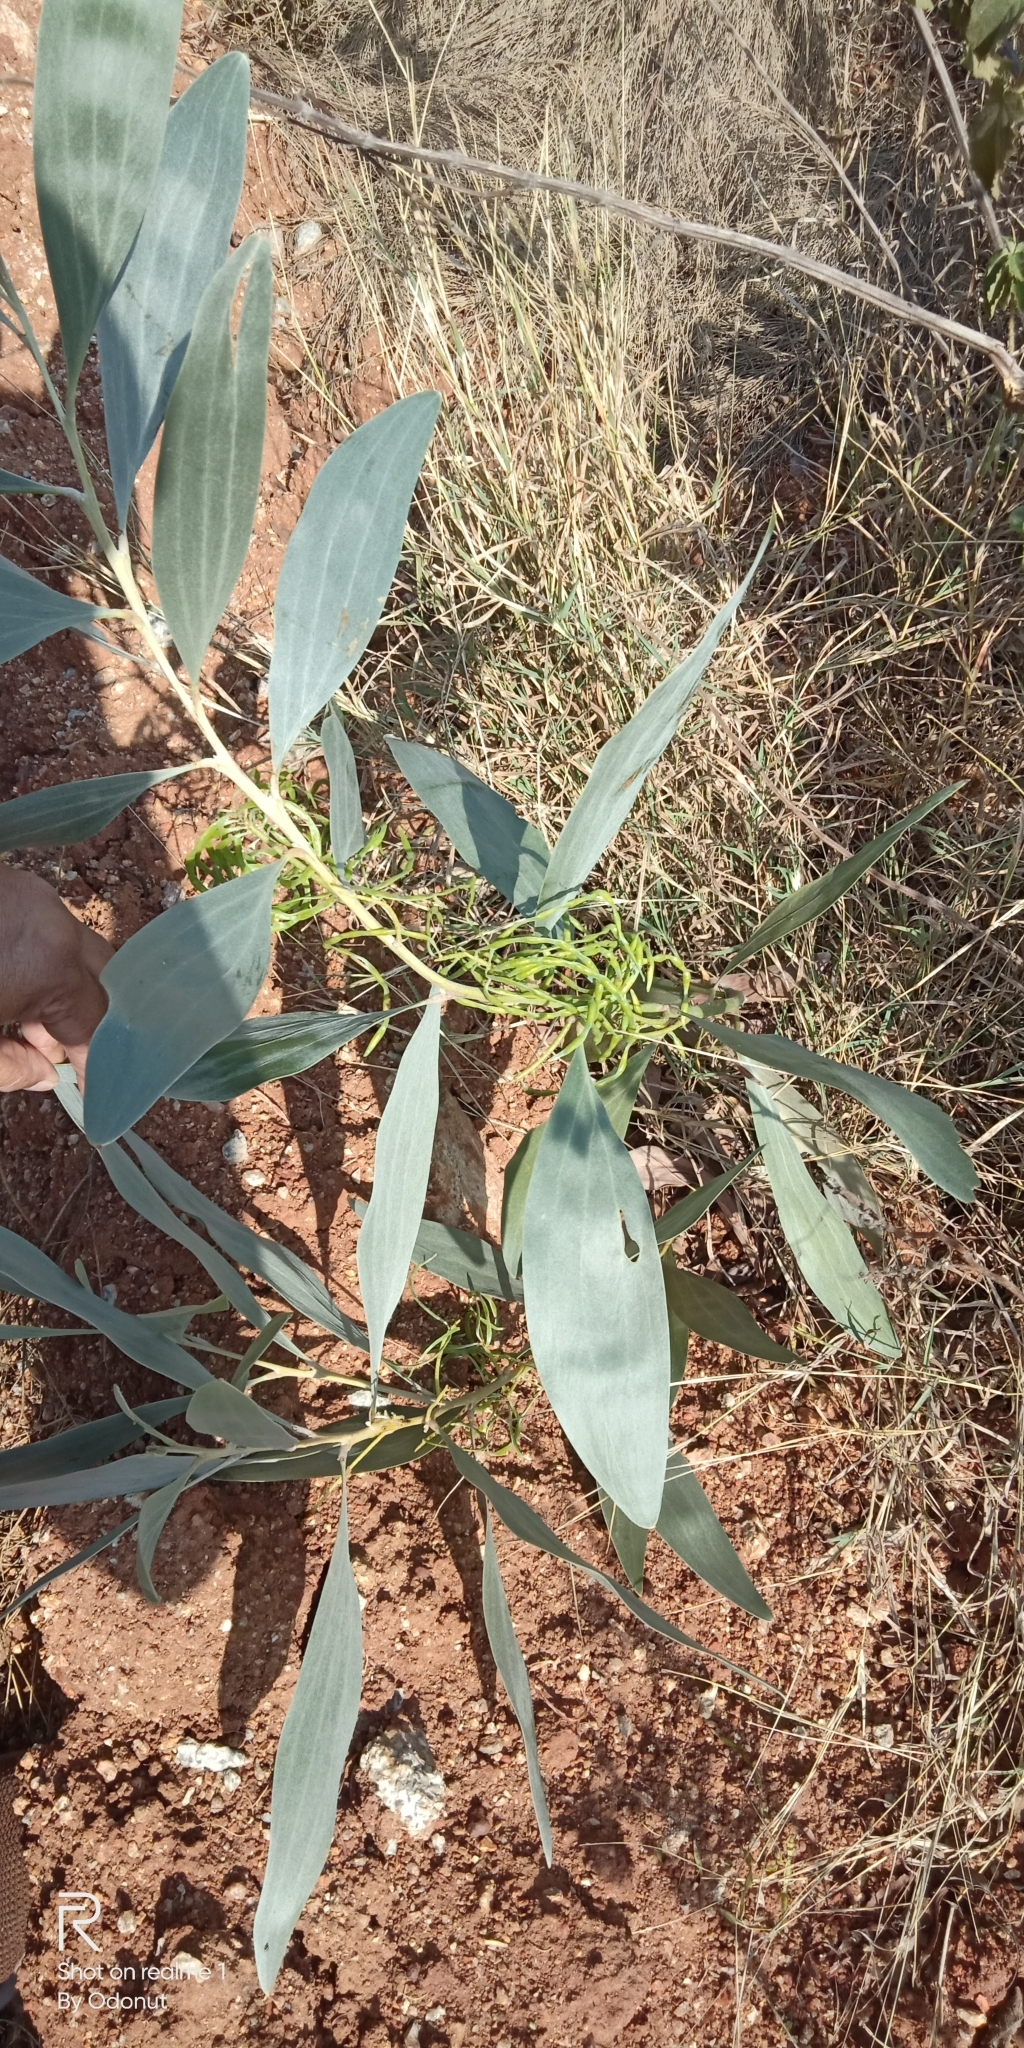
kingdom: Plantae
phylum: Tracheophyta
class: Magnoliopsida
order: Fabales
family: Fabaceae
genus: Acacia
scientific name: Acacia auriculiformis
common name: Earleaf acacia
